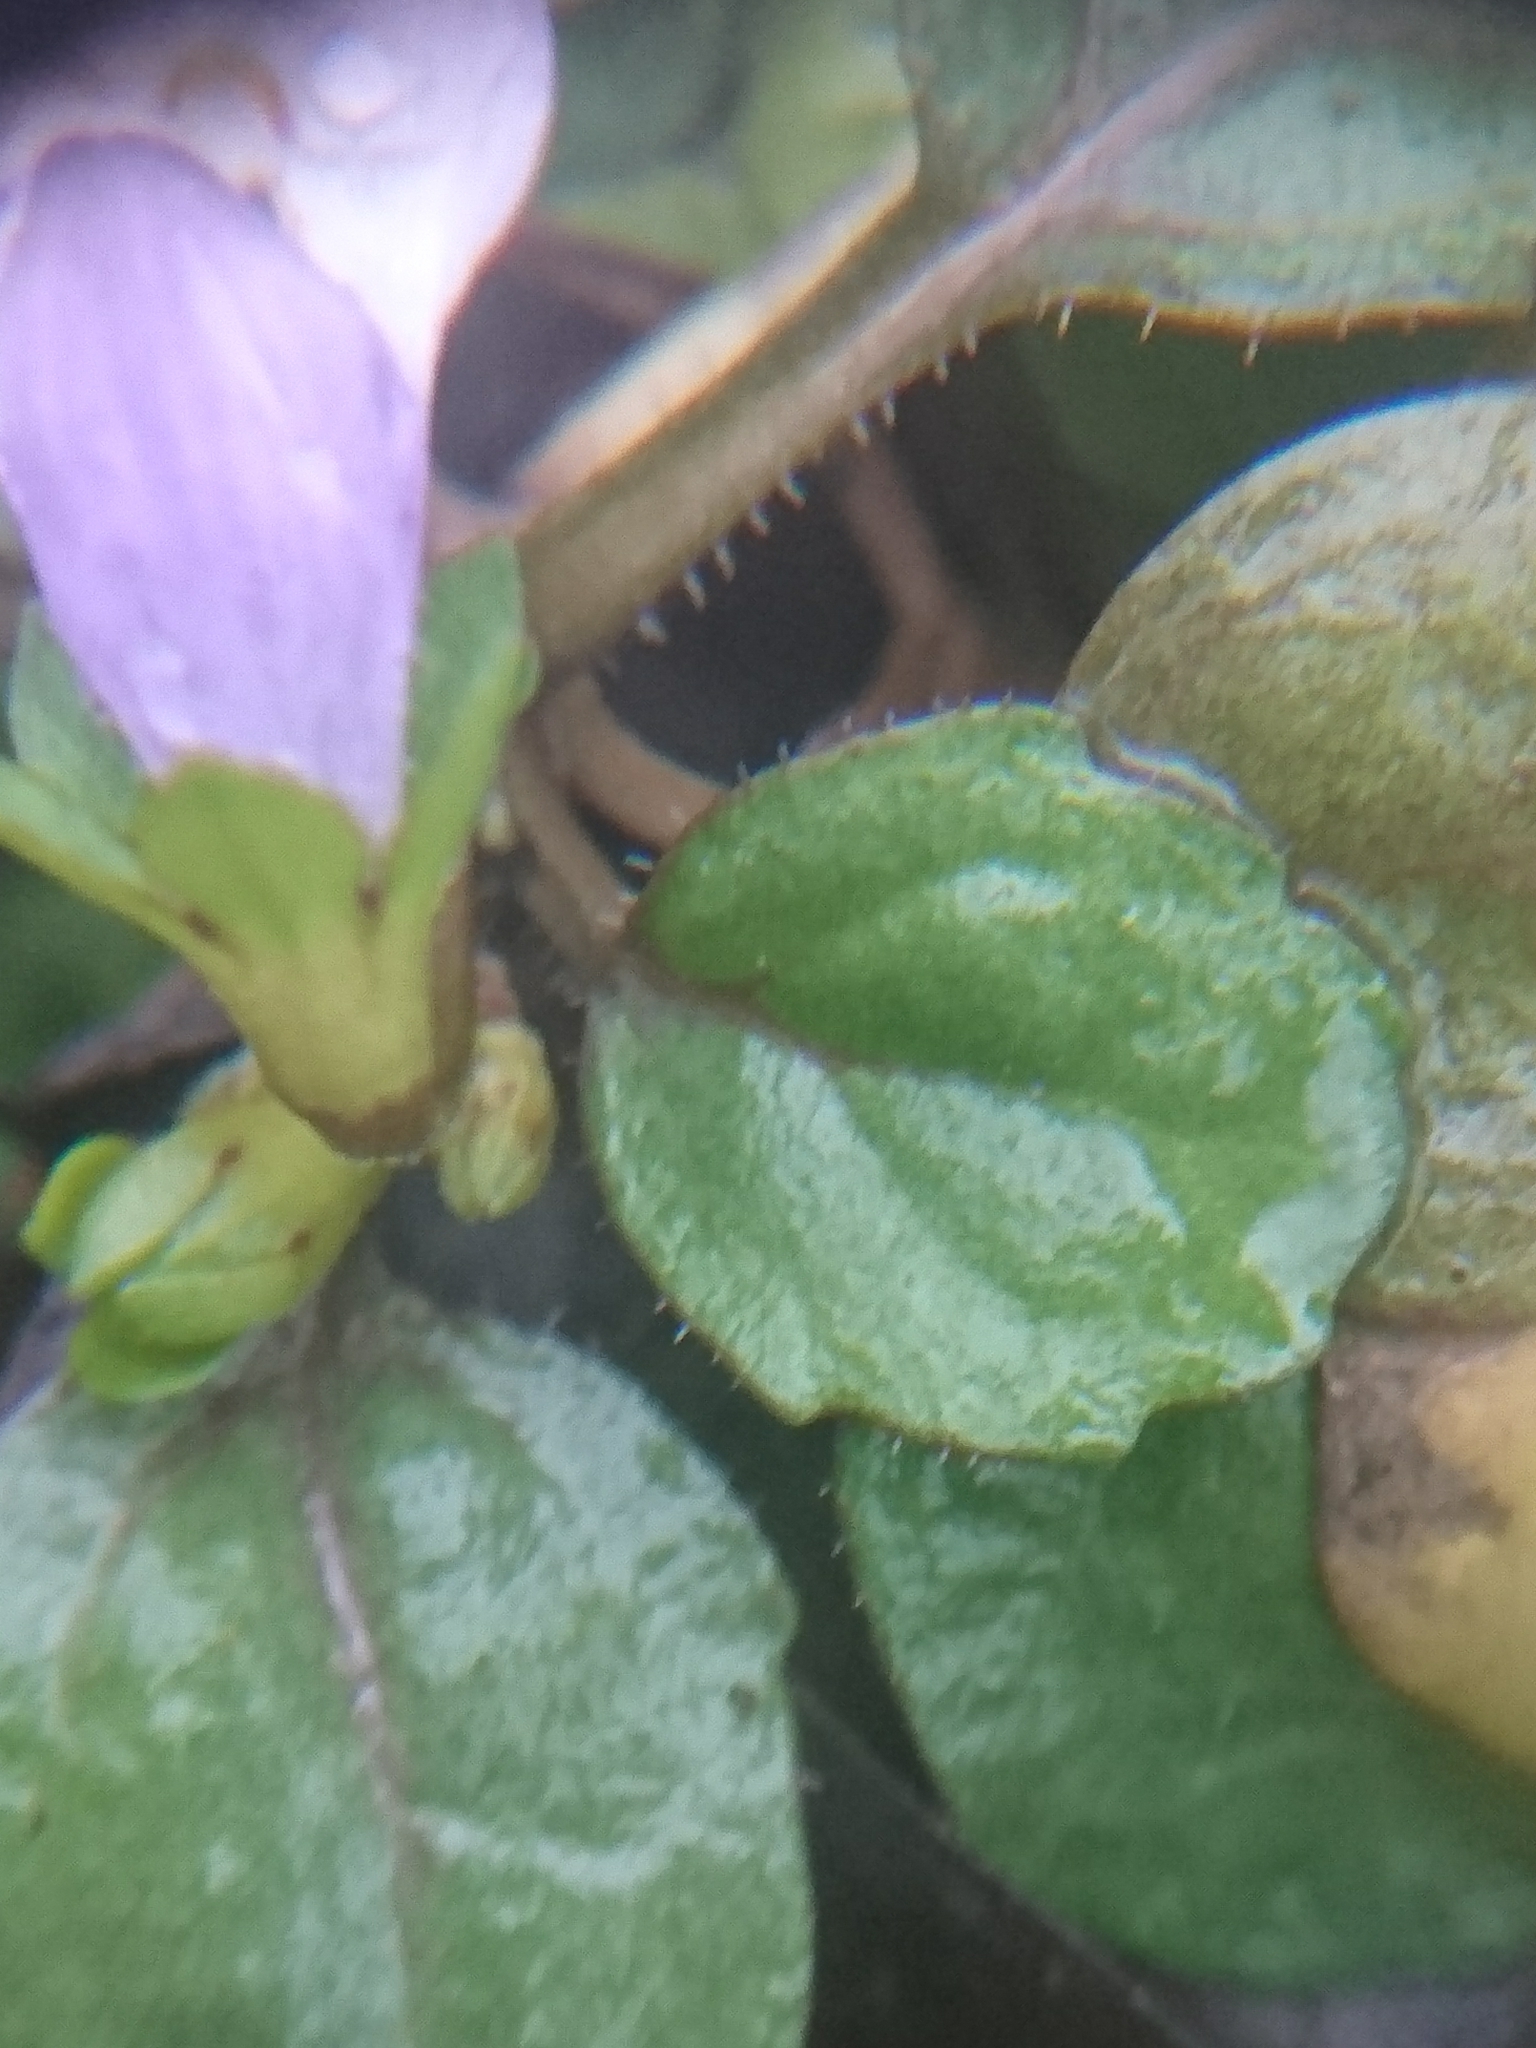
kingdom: Plantae
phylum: Tracheophyta
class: Magnoliopsida
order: Lamiales
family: Mazaceae
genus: Mazus
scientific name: Mazus pumilus
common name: Japanese mazus
